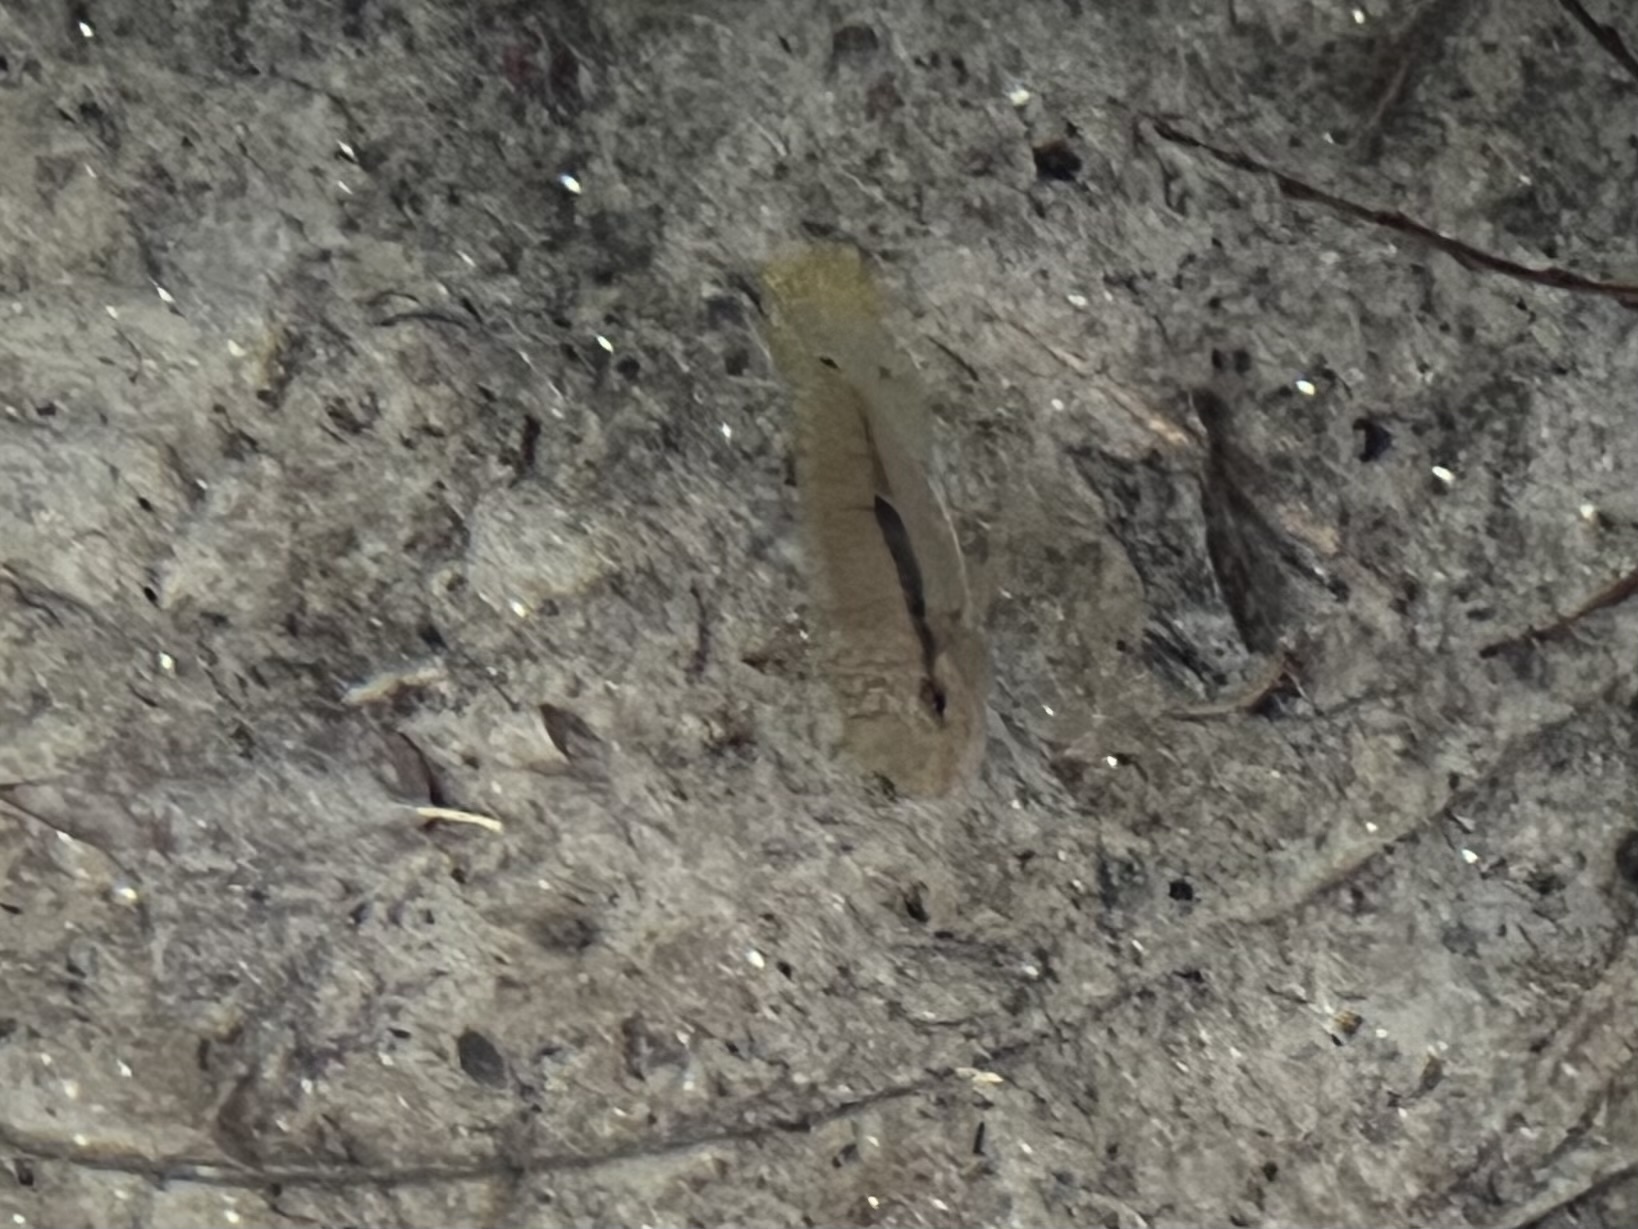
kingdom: Animalia
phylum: Chordata
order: Perciformes
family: Cichlidae
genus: Cichlasoma
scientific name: Cichlasoma dimerus
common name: Chanchita
